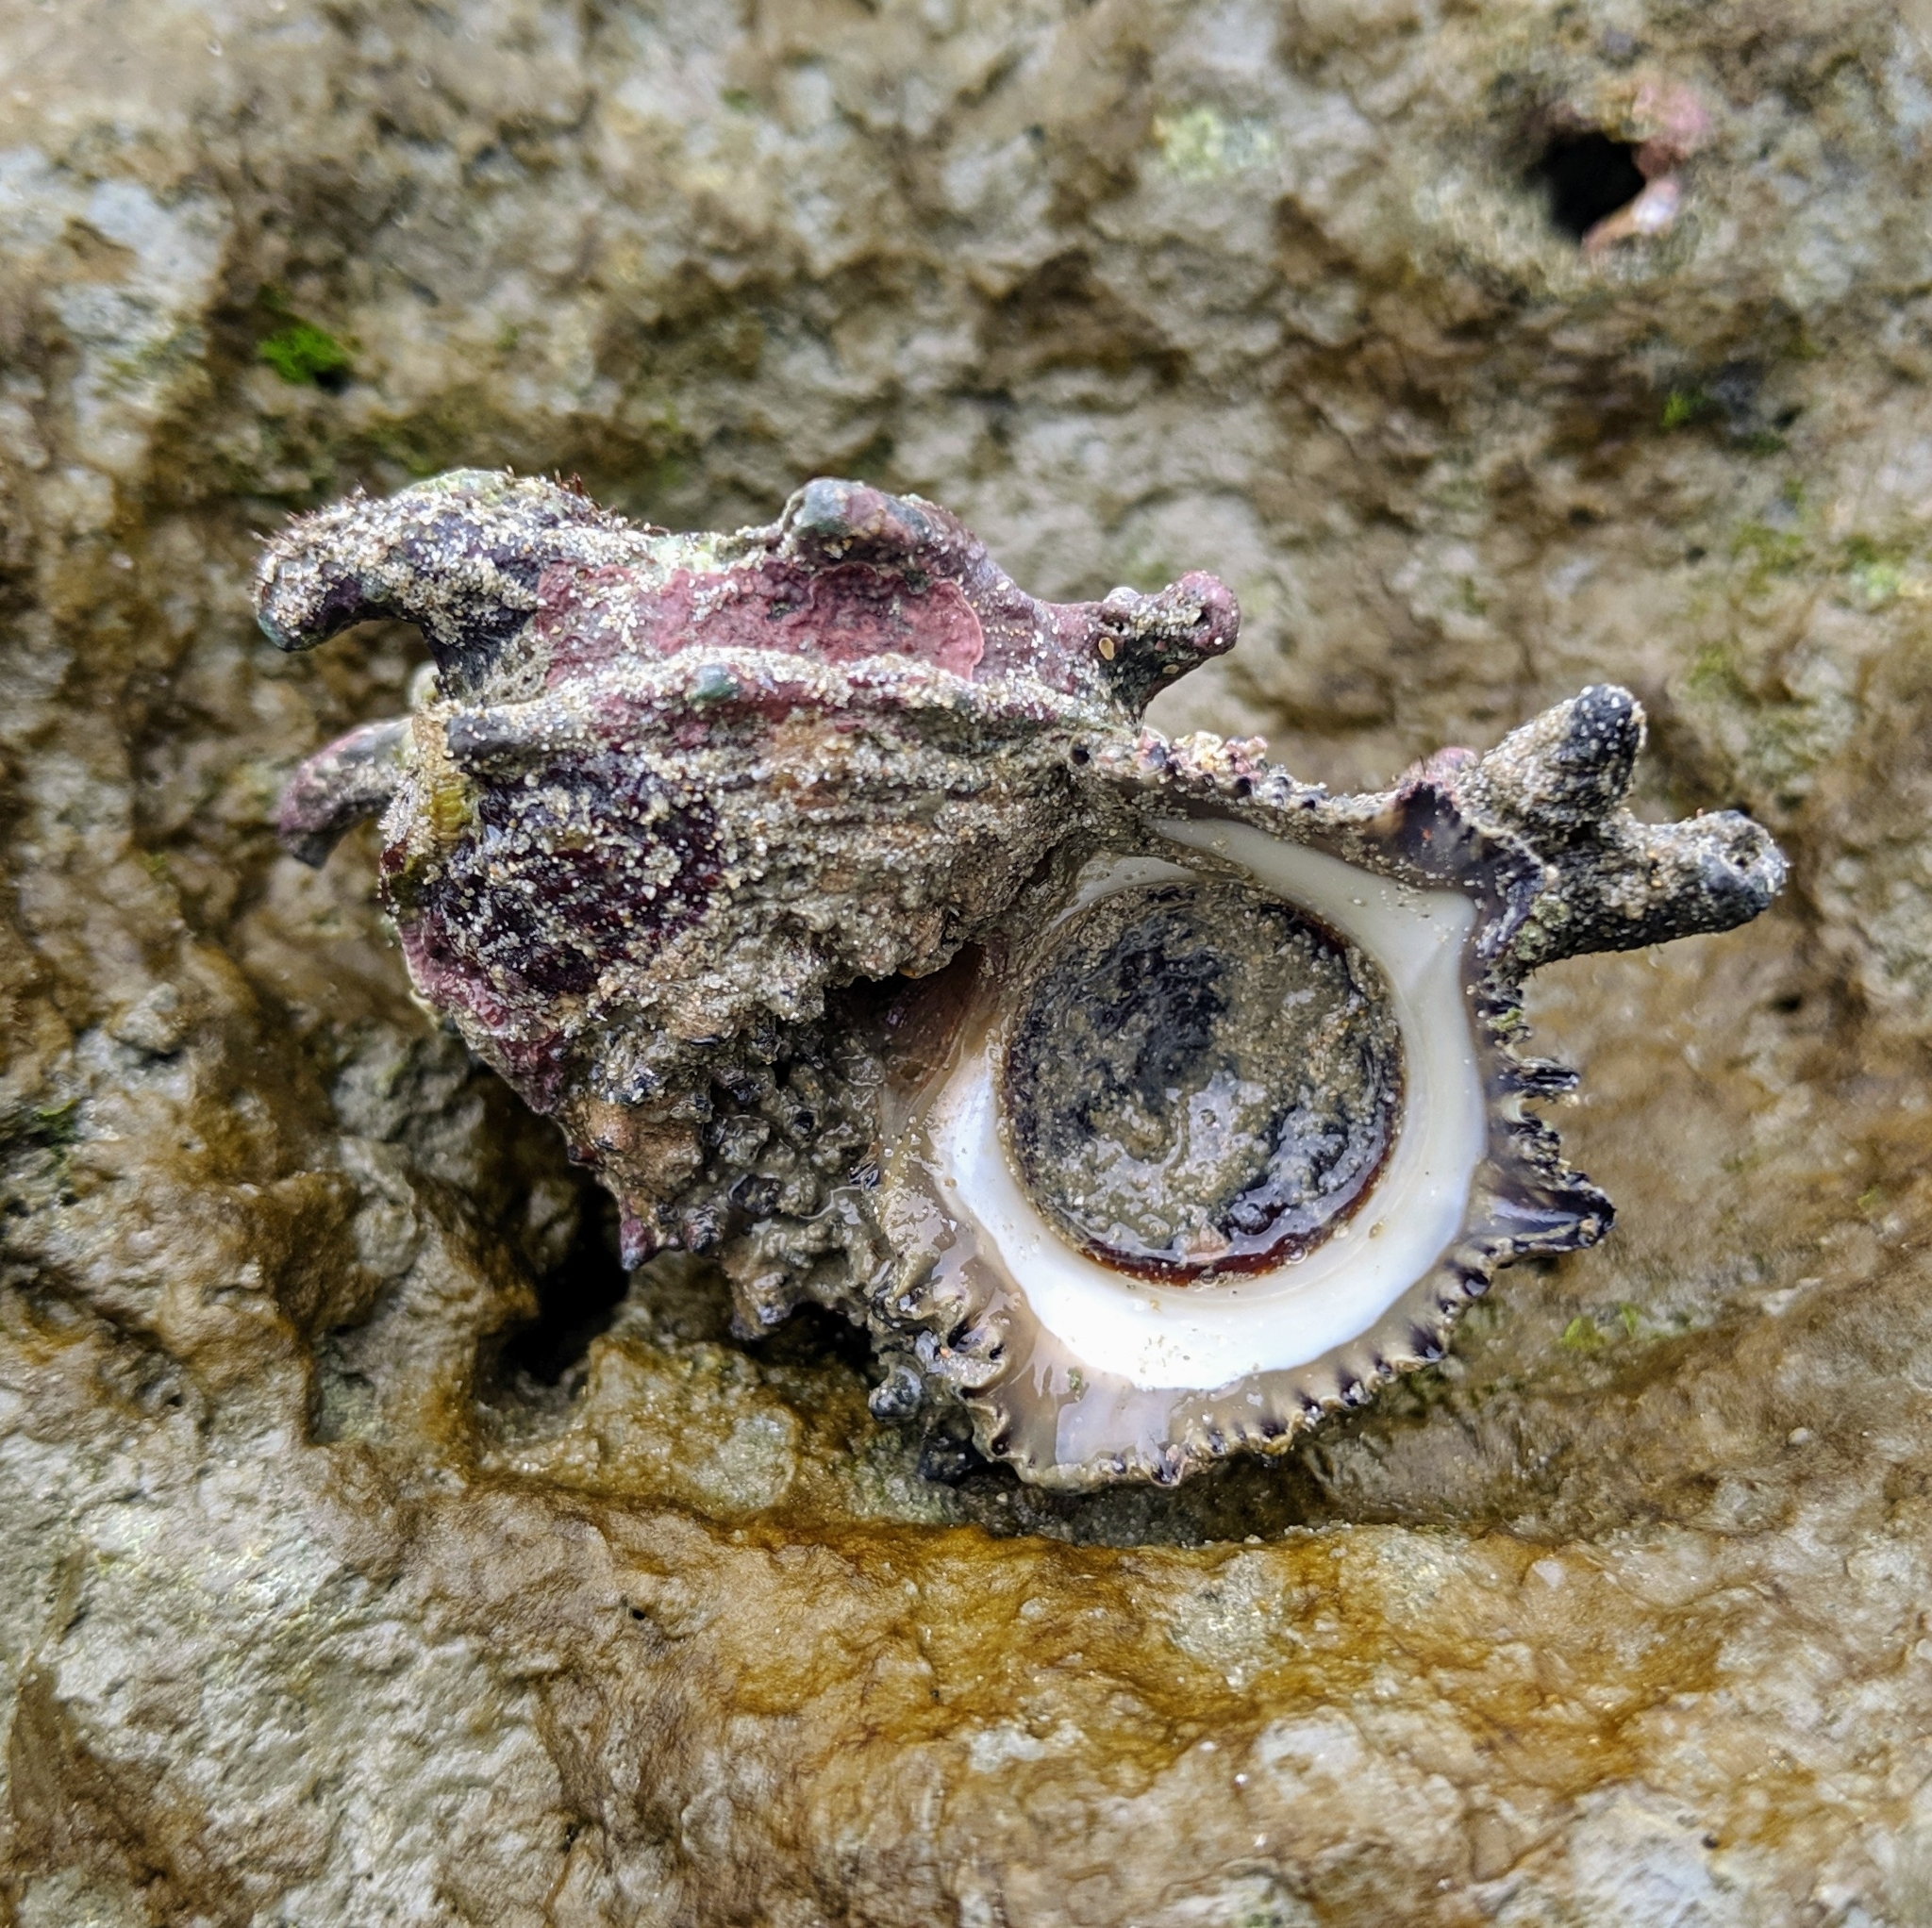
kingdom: Animalia
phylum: Mollusca
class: Gastropoda
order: Trochida
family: Angariidae
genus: Angaria
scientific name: Angaria delphinus
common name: Dolphin shell
